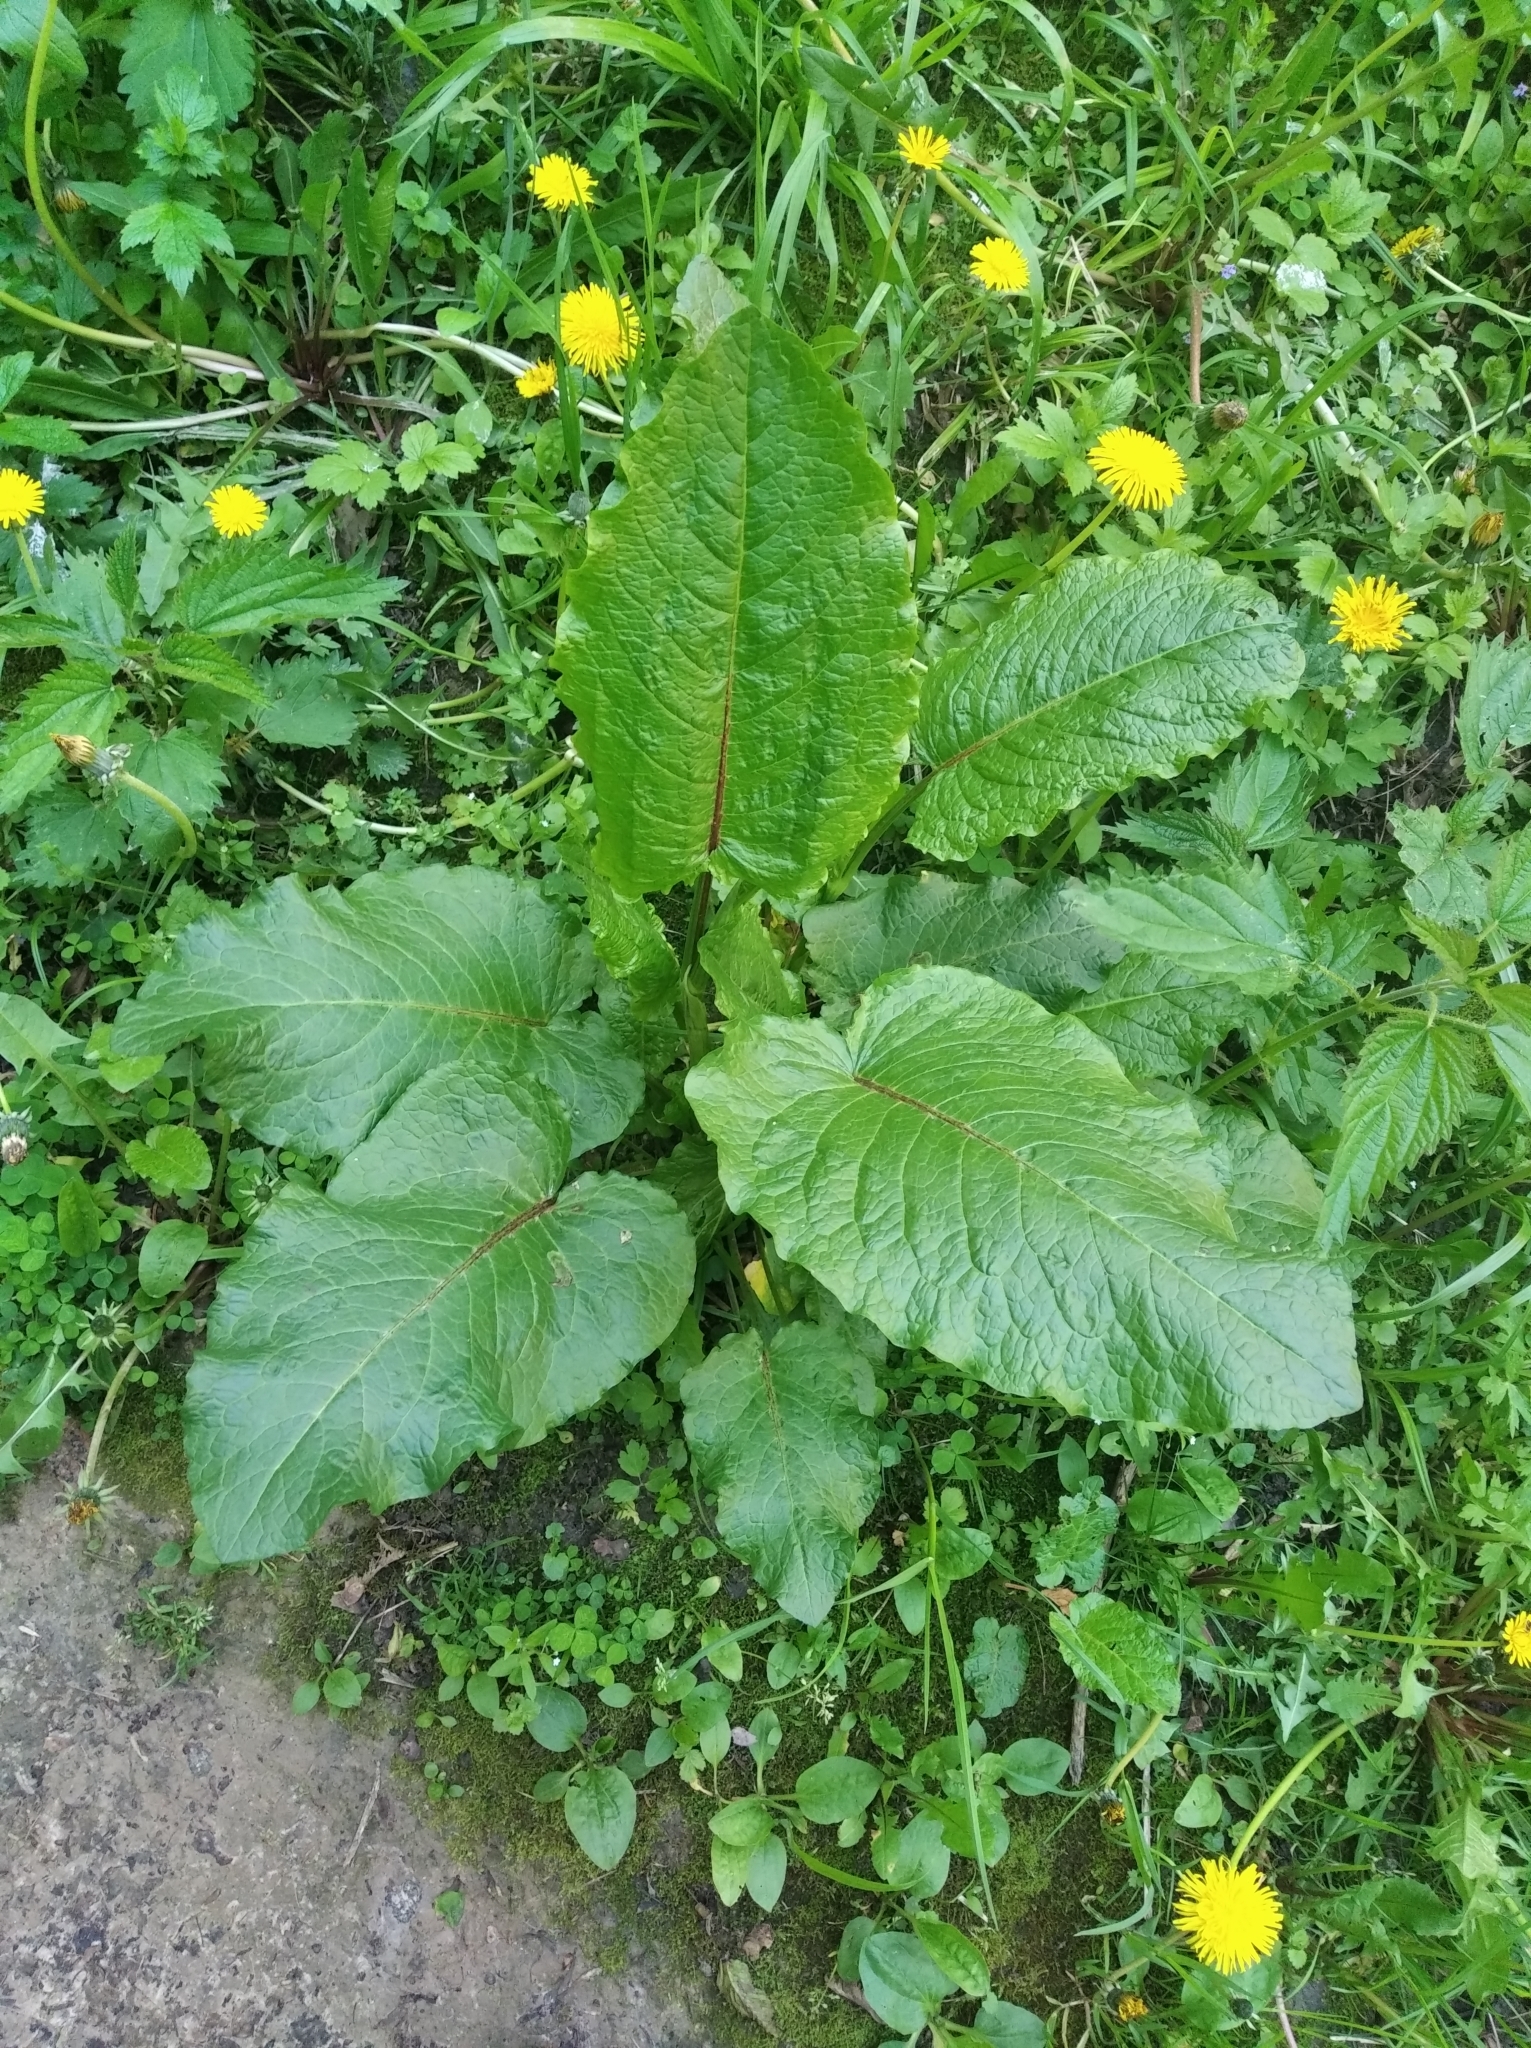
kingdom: Plantae
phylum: Tracheophyta
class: Magnoliopsida
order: Caryophyllales
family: Polygonaceae
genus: Rumex
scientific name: Rumex obtusifolius
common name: Bitter dock
